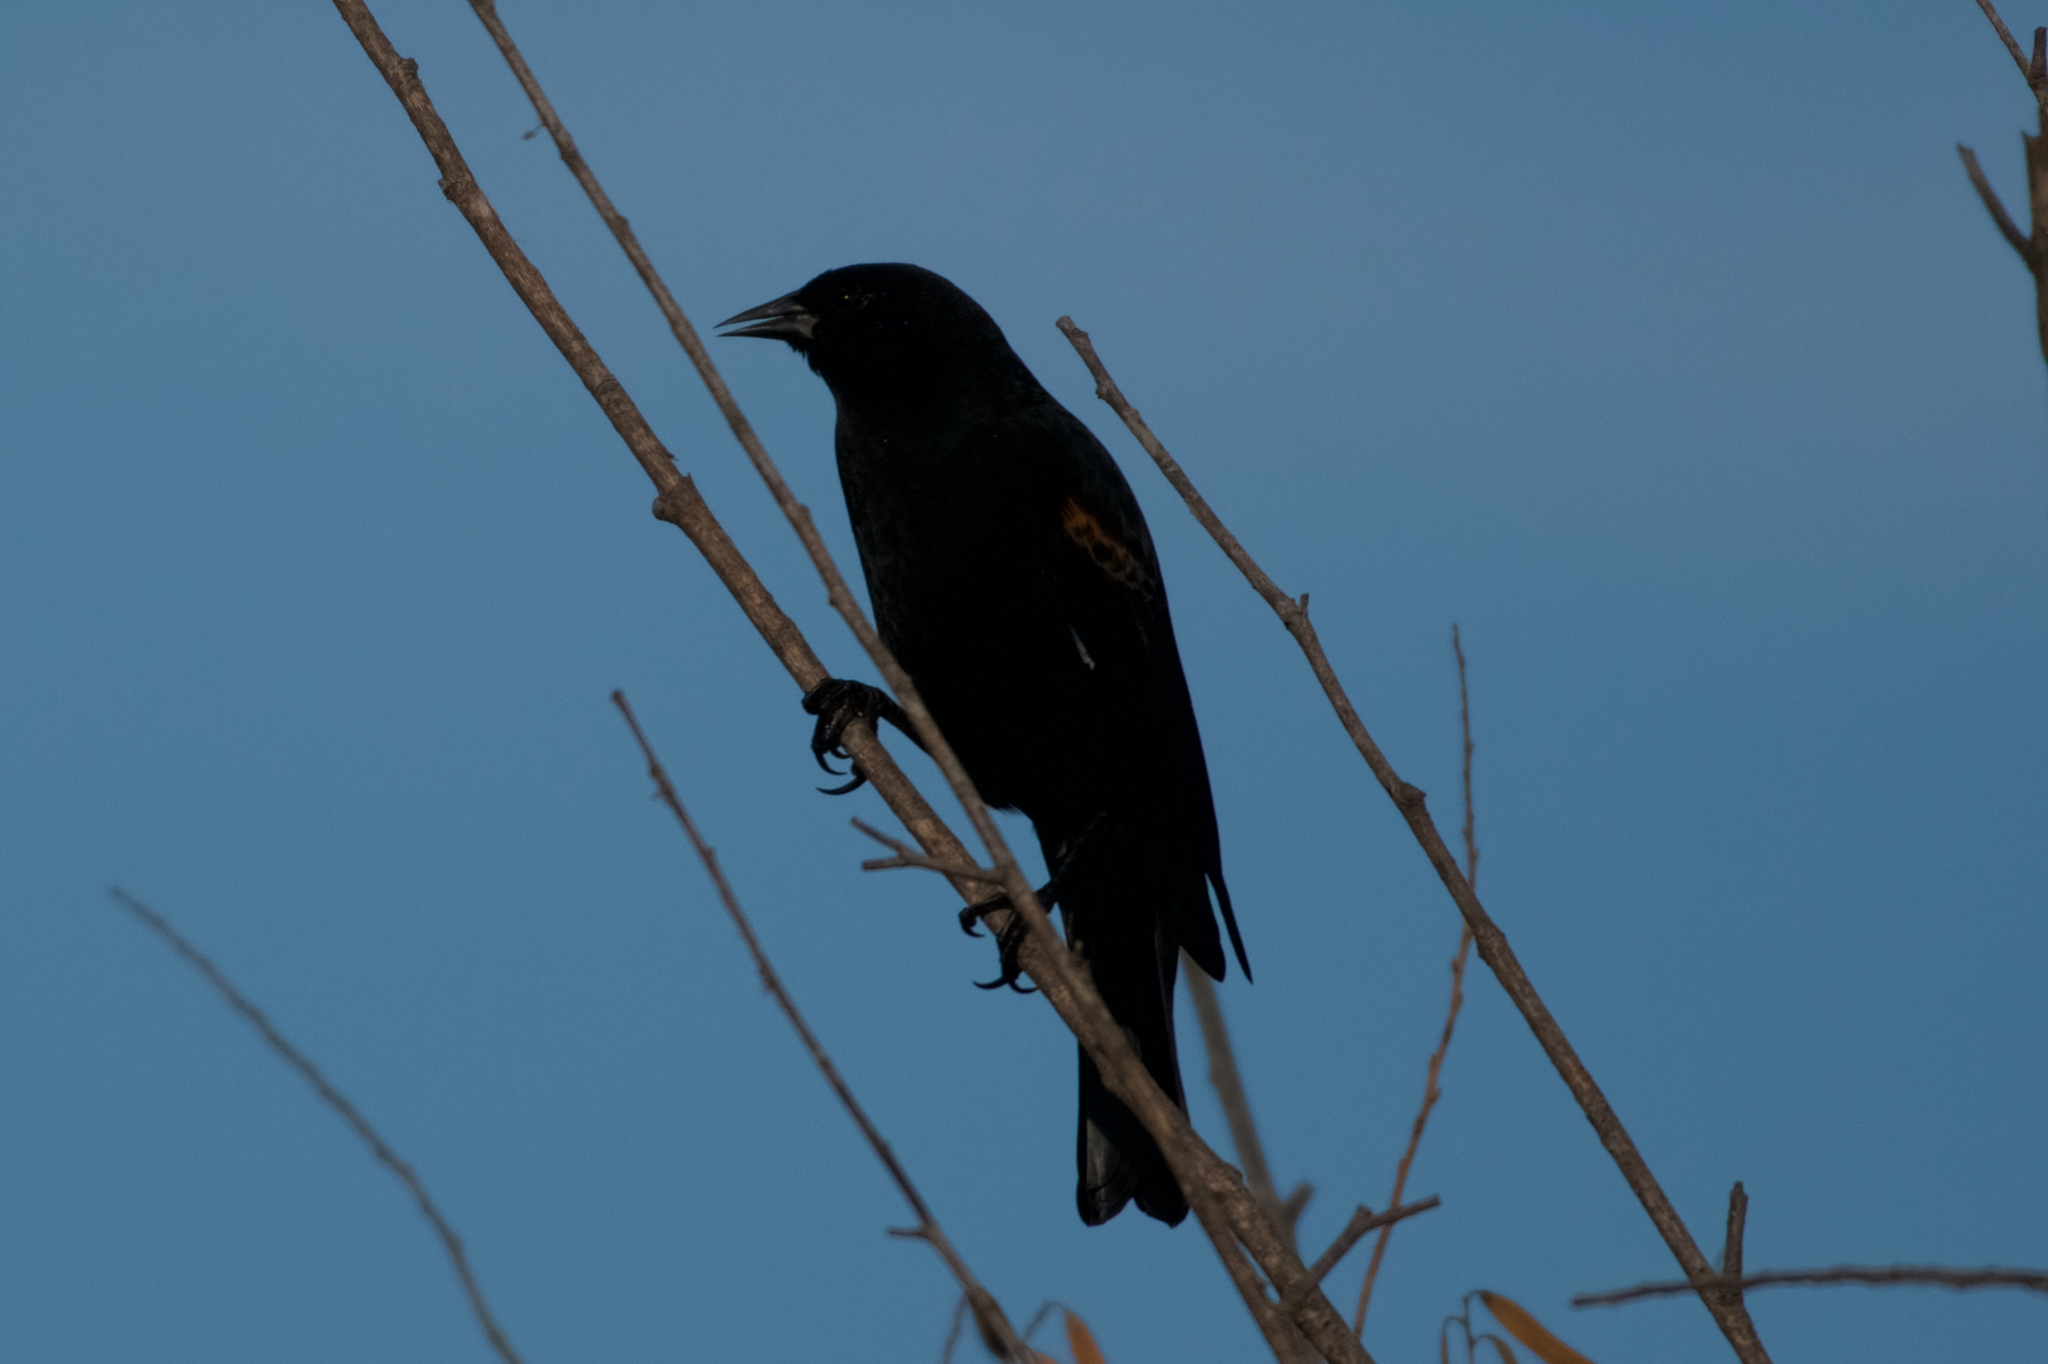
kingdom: Animalia
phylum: Chordata
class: Aves
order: Passeriformes
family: Icteridae
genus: Agelaius
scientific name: Agelaius phoeniceus
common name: Red-winged blackbird
